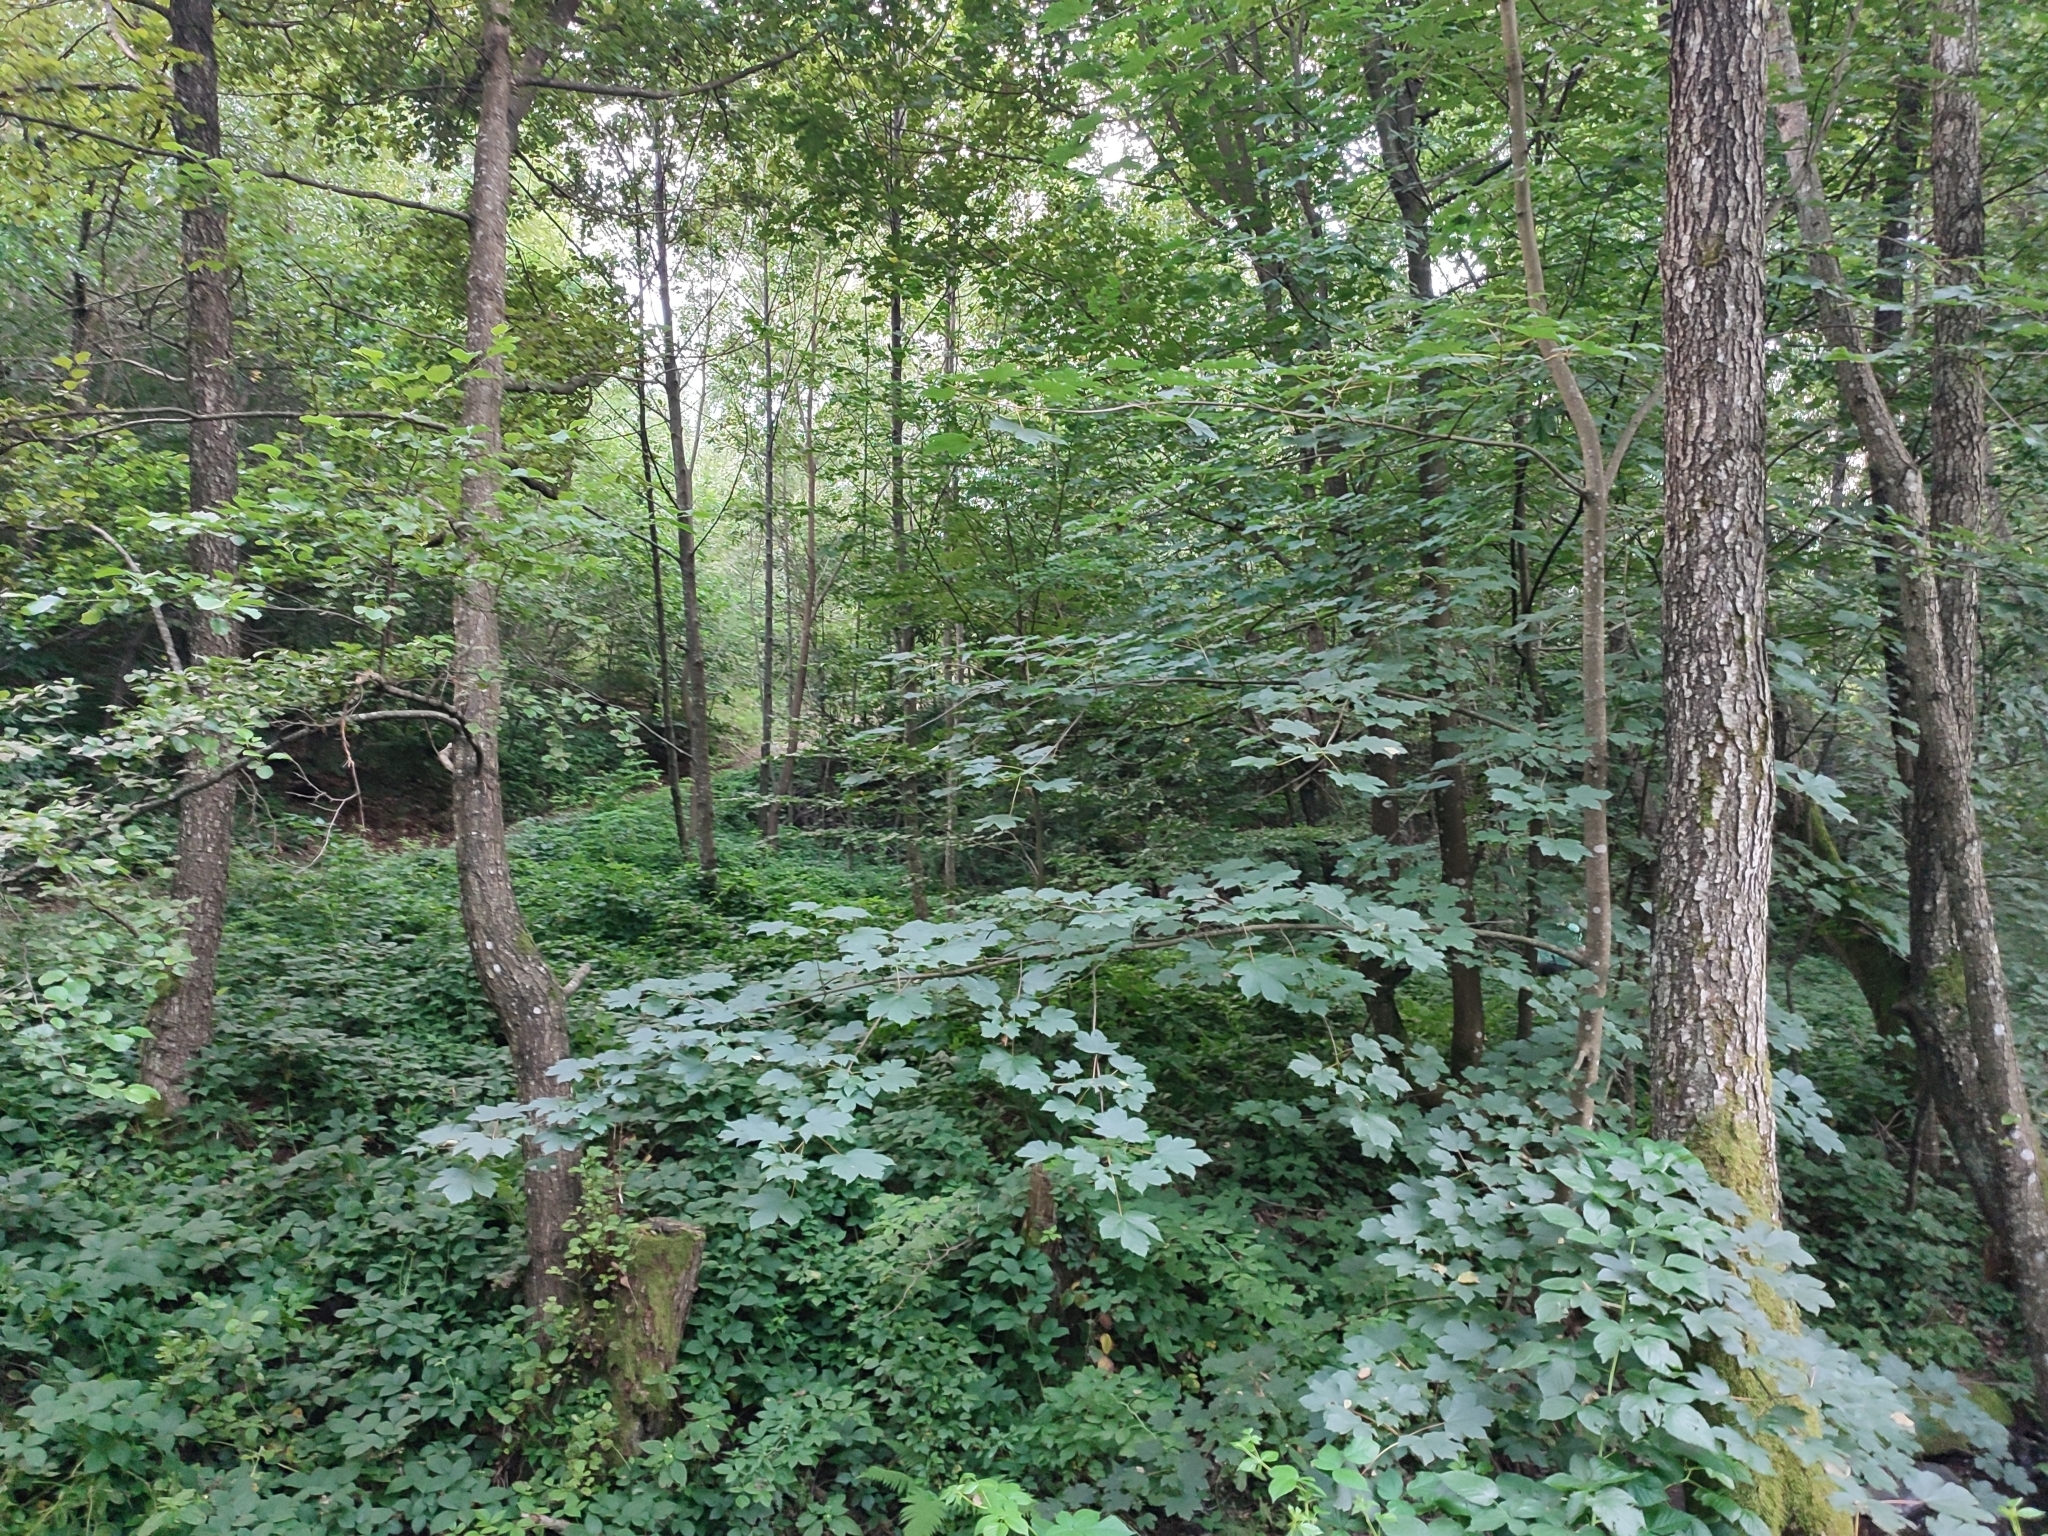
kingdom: Plantae
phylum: Tracheophyta
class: Magnoliopsida
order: Sapindales
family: Sapindaceae
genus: Acer
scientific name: Acer pseudoplatanus
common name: Sycamore
